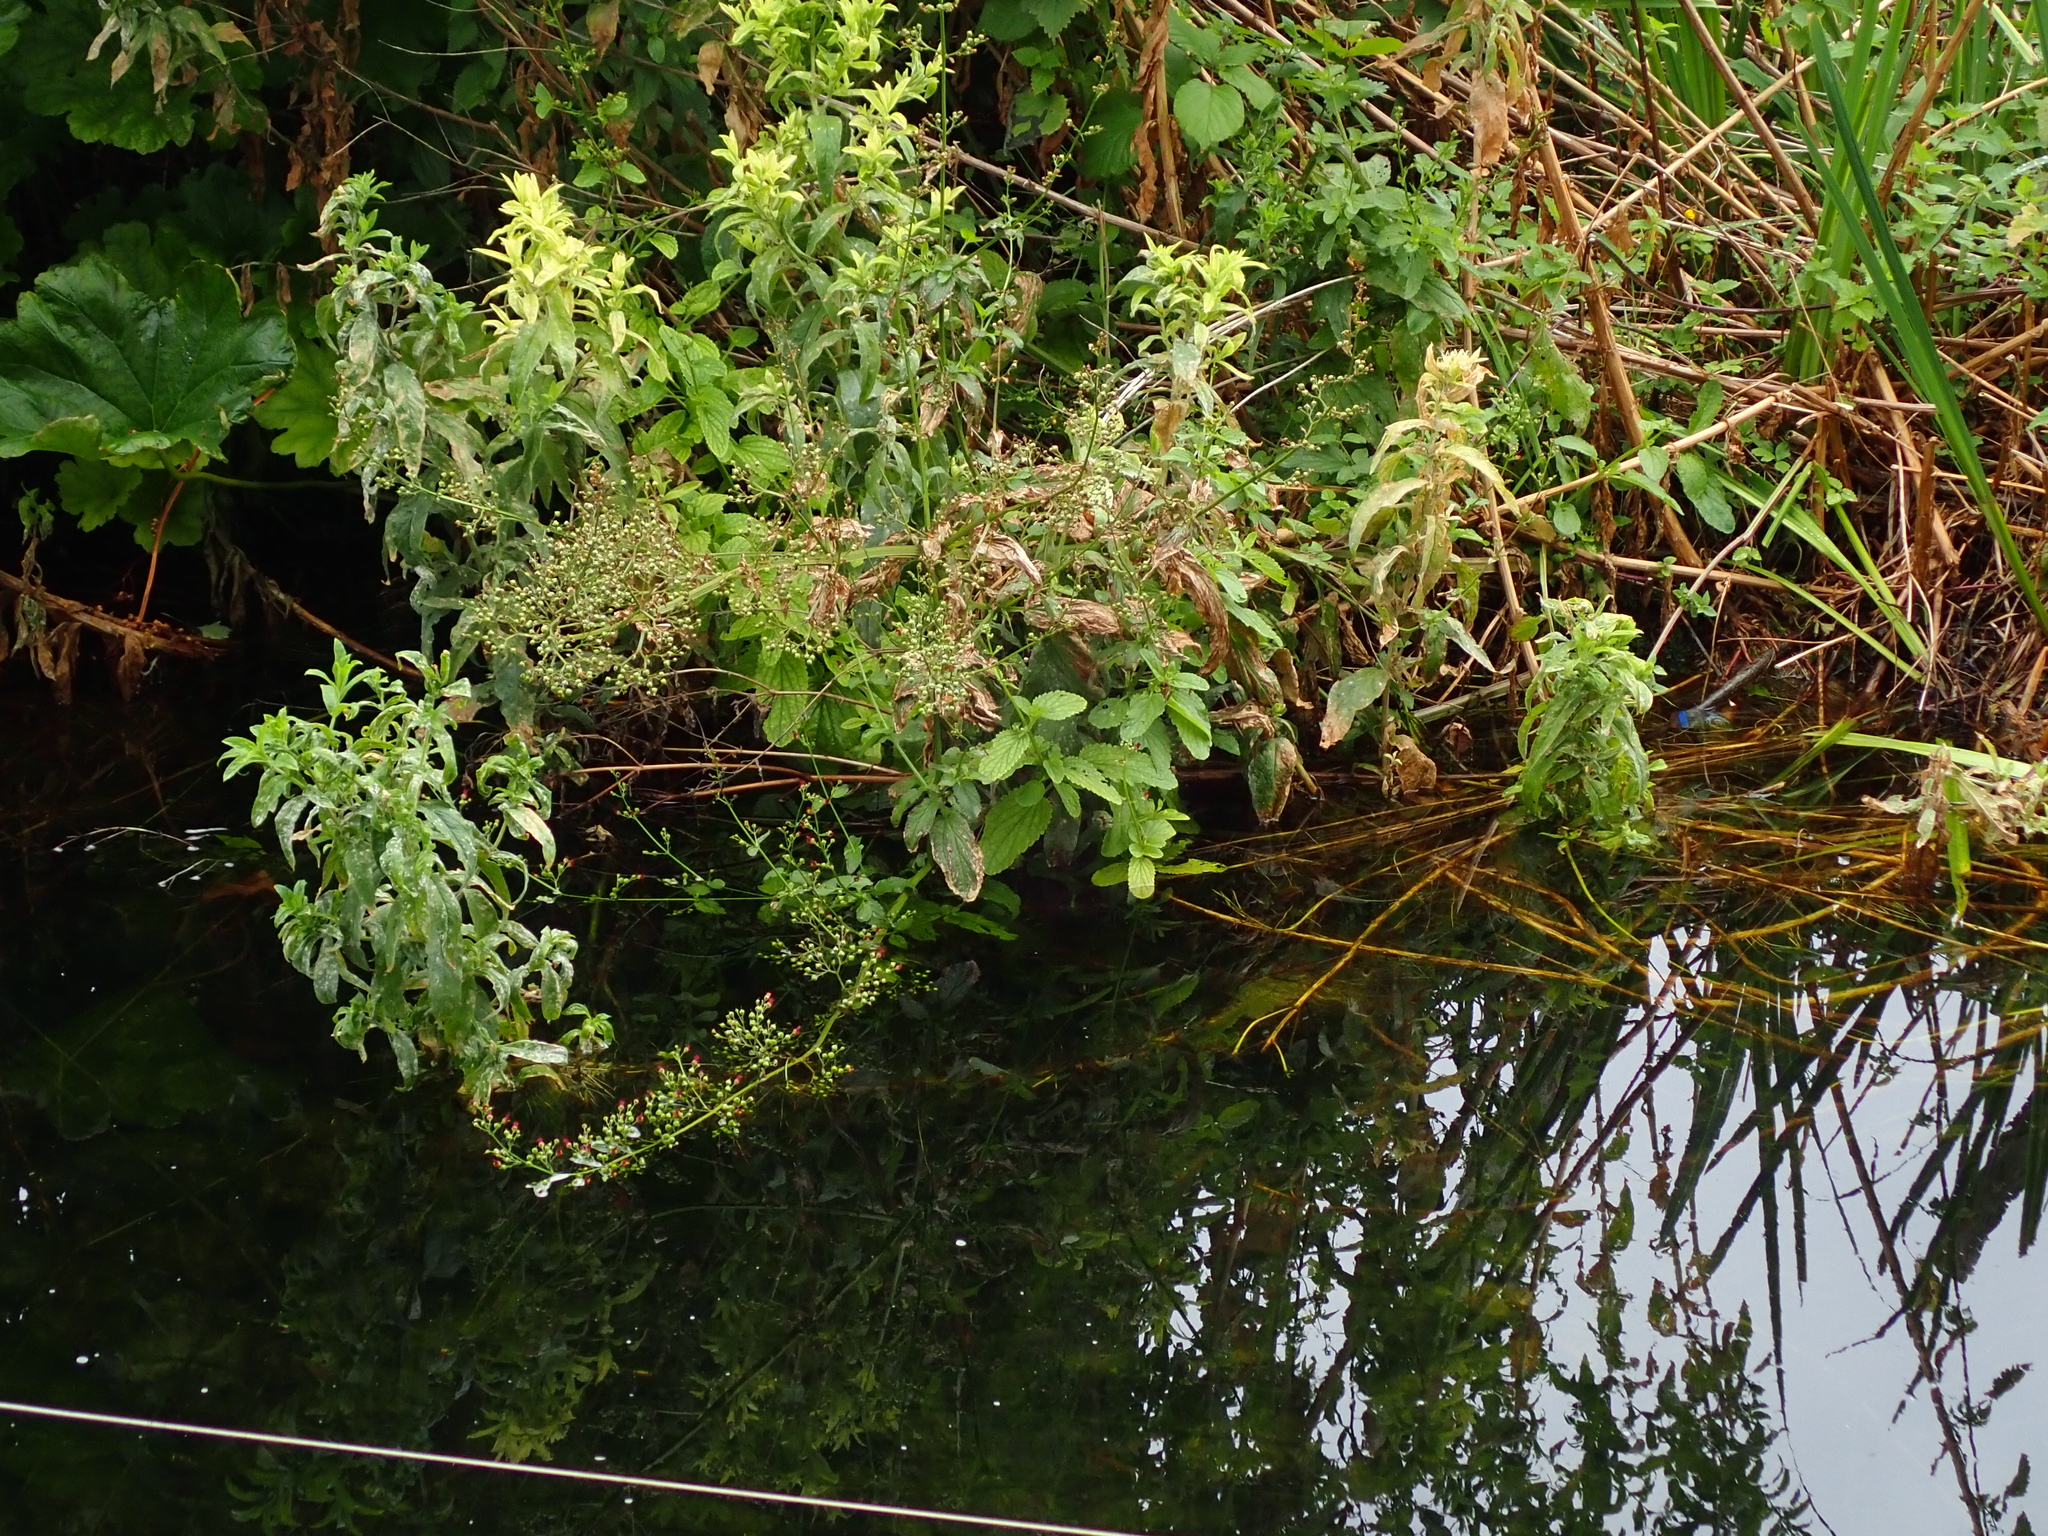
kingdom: Plantae
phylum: Tracheophyta
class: Magnoliopsida
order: Lamiales
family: Scrophulariaceae
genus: Scrophularia
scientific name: Scrophularia auriculata
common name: Water betony
